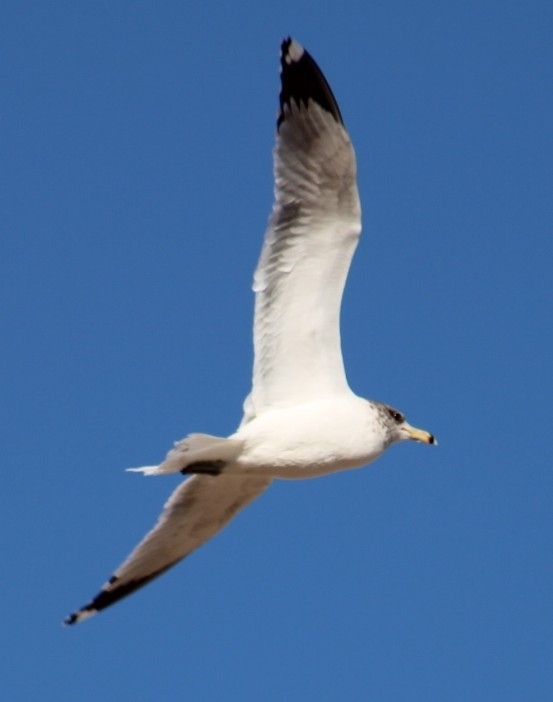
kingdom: Animalia
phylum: Chordata
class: Aves
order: Charadriiformes
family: Laridae
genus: Larus
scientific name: Larus californicus
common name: California gull
